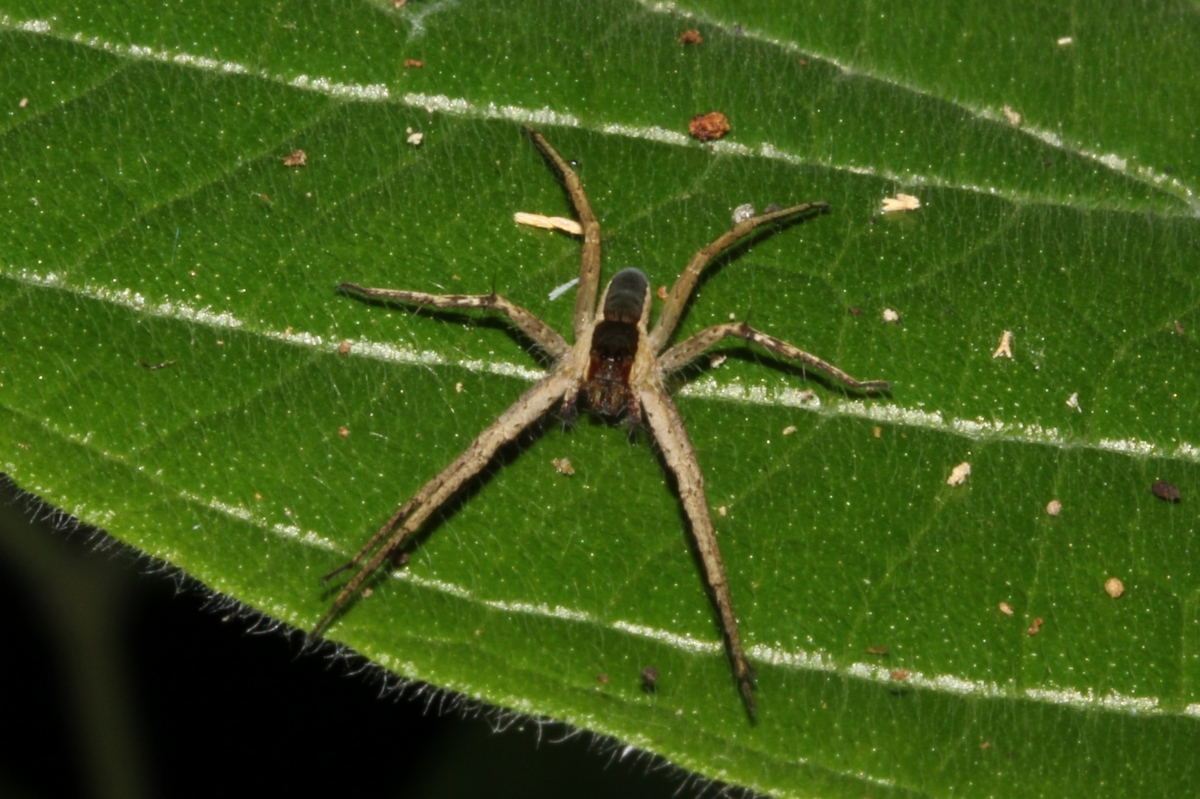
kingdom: Animalia
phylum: Arthropoda
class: Arachnida
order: Araneae
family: Trechaleidae
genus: Dossenus
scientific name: Dossenus marginatus
